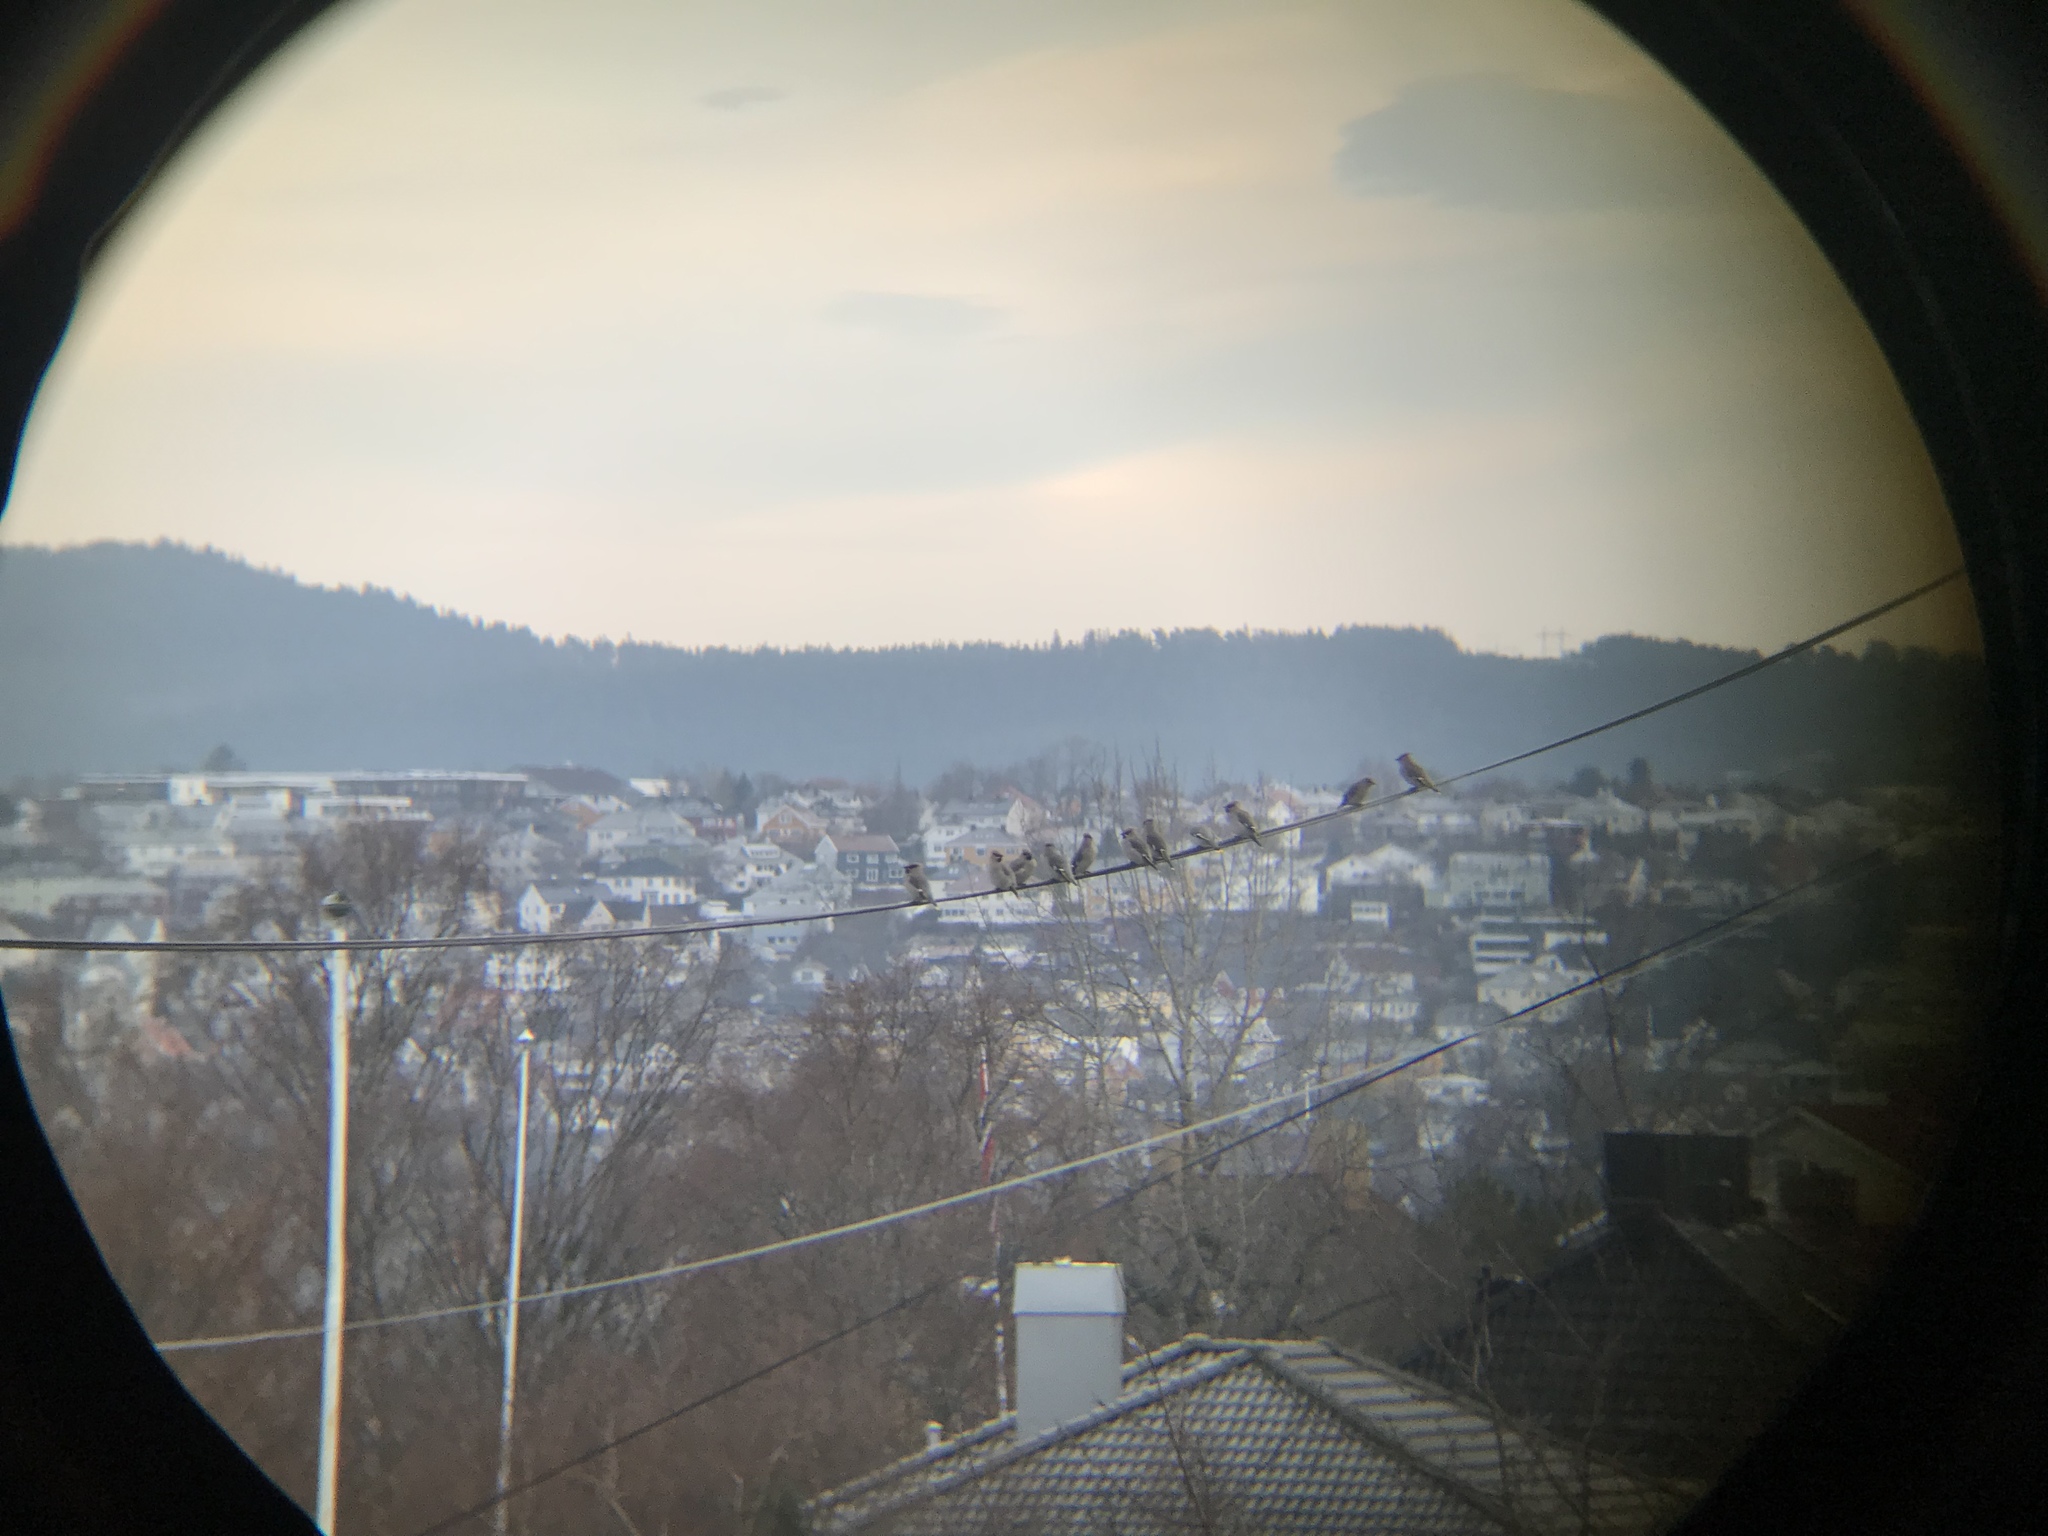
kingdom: Animalia
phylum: Chordata
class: Aves
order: Passeriformes
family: Bombycillidae
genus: Bombycilla
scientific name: Bombycilla garrulus
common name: Bohemian waxwing
